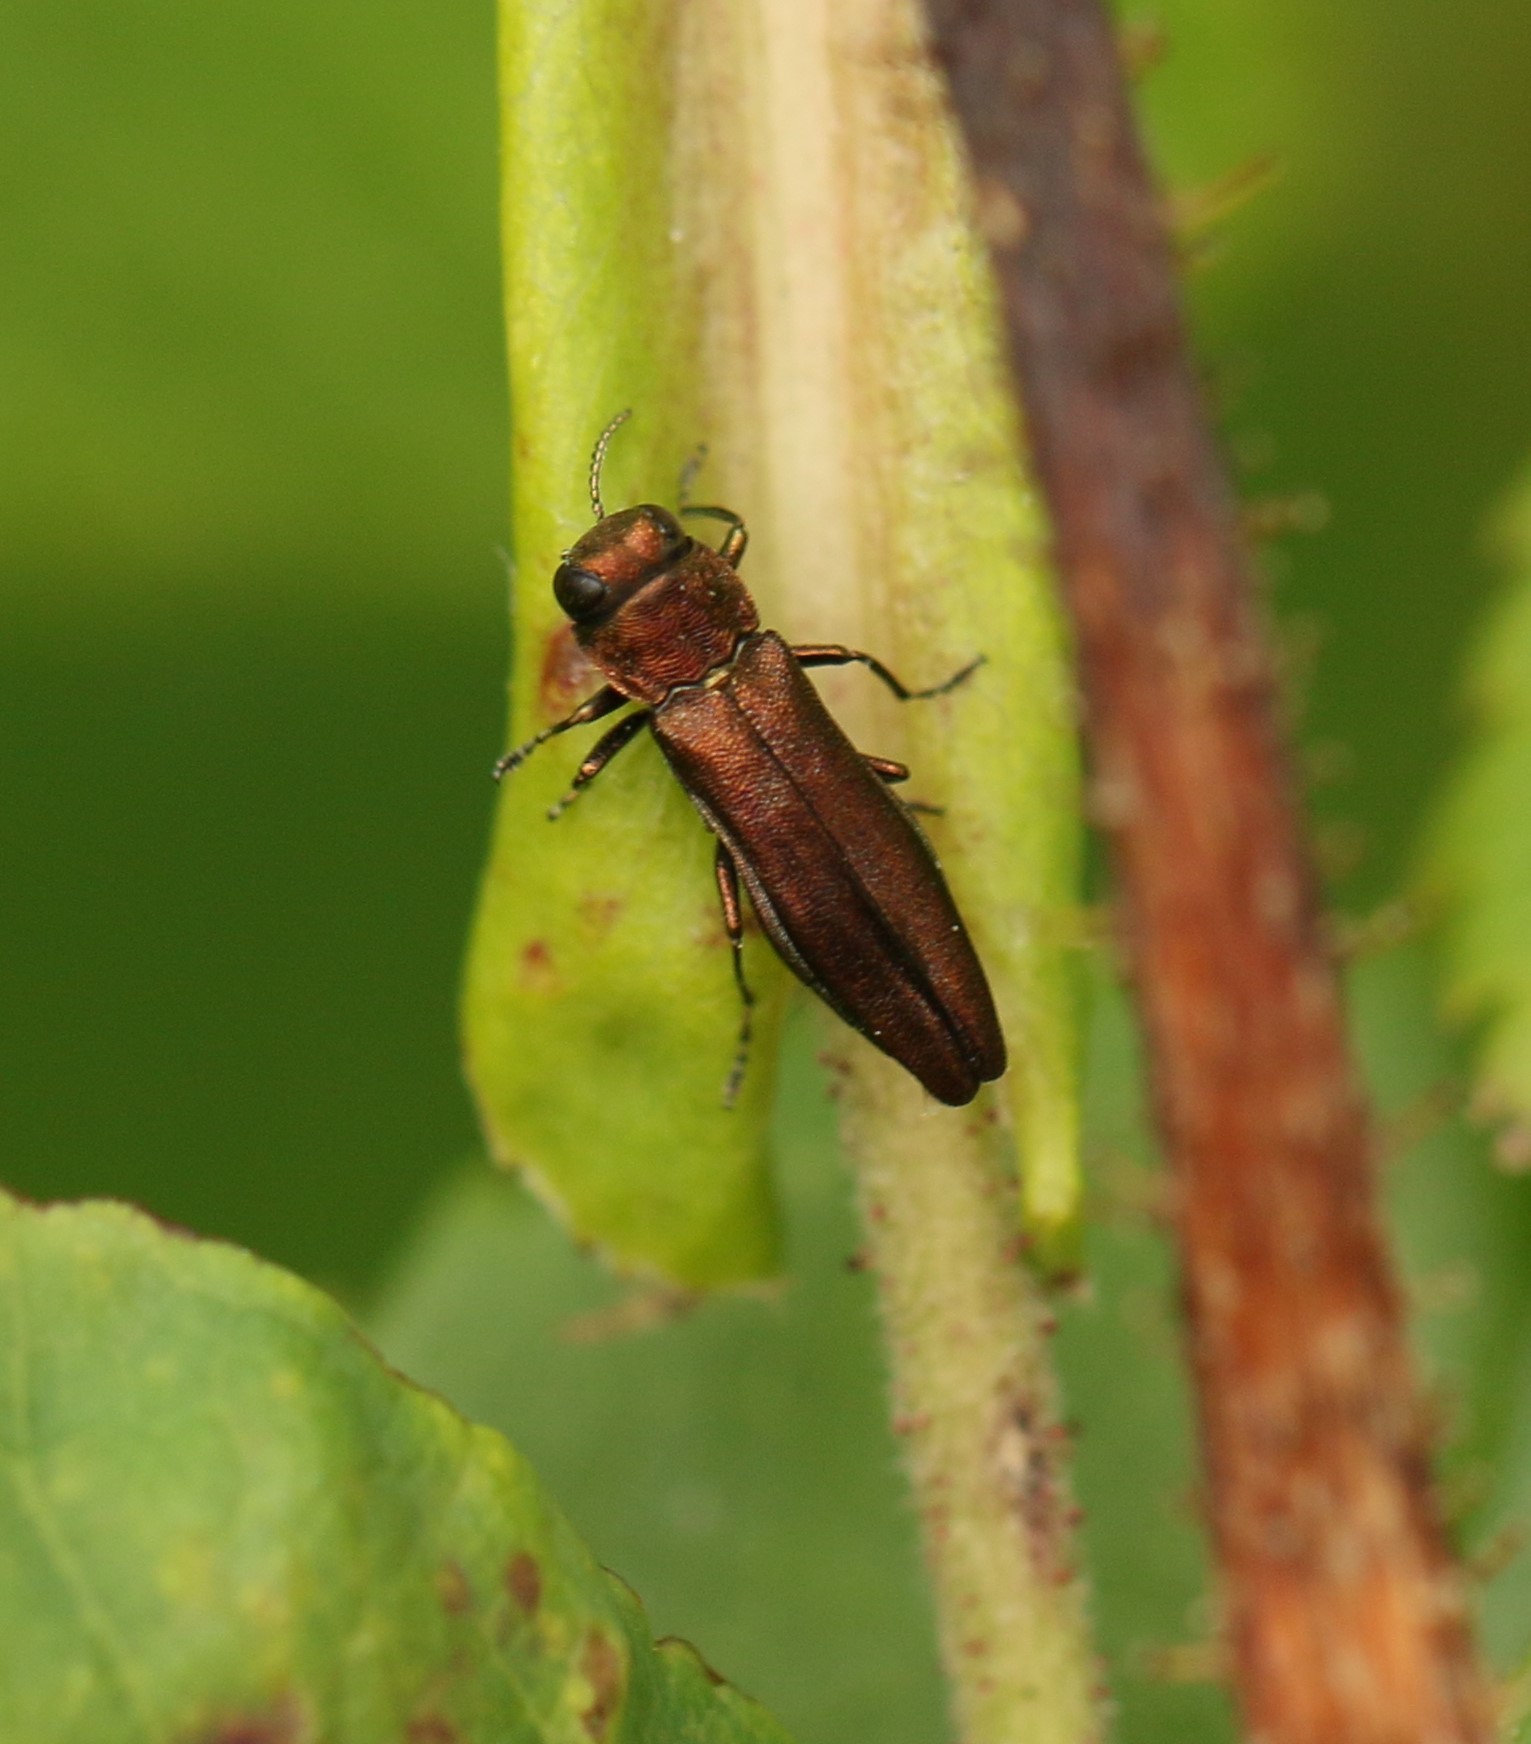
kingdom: Animalia
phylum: Arthropoda
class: Insecta
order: Coleoptera
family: Buprestidae
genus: Agrilus
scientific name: Agrilus cuprescens
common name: Rose stem girdler
